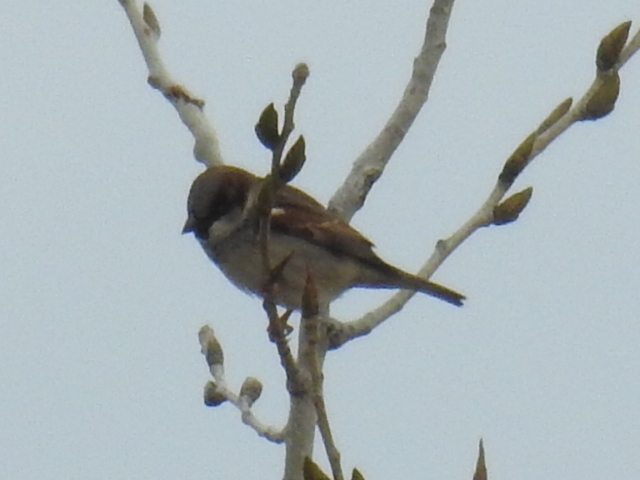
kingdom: Animalia
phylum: Chordata
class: Aves
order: Passeriformes
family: Passeridae
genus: Passer
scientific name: Passer domesticus
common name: House sparrow
